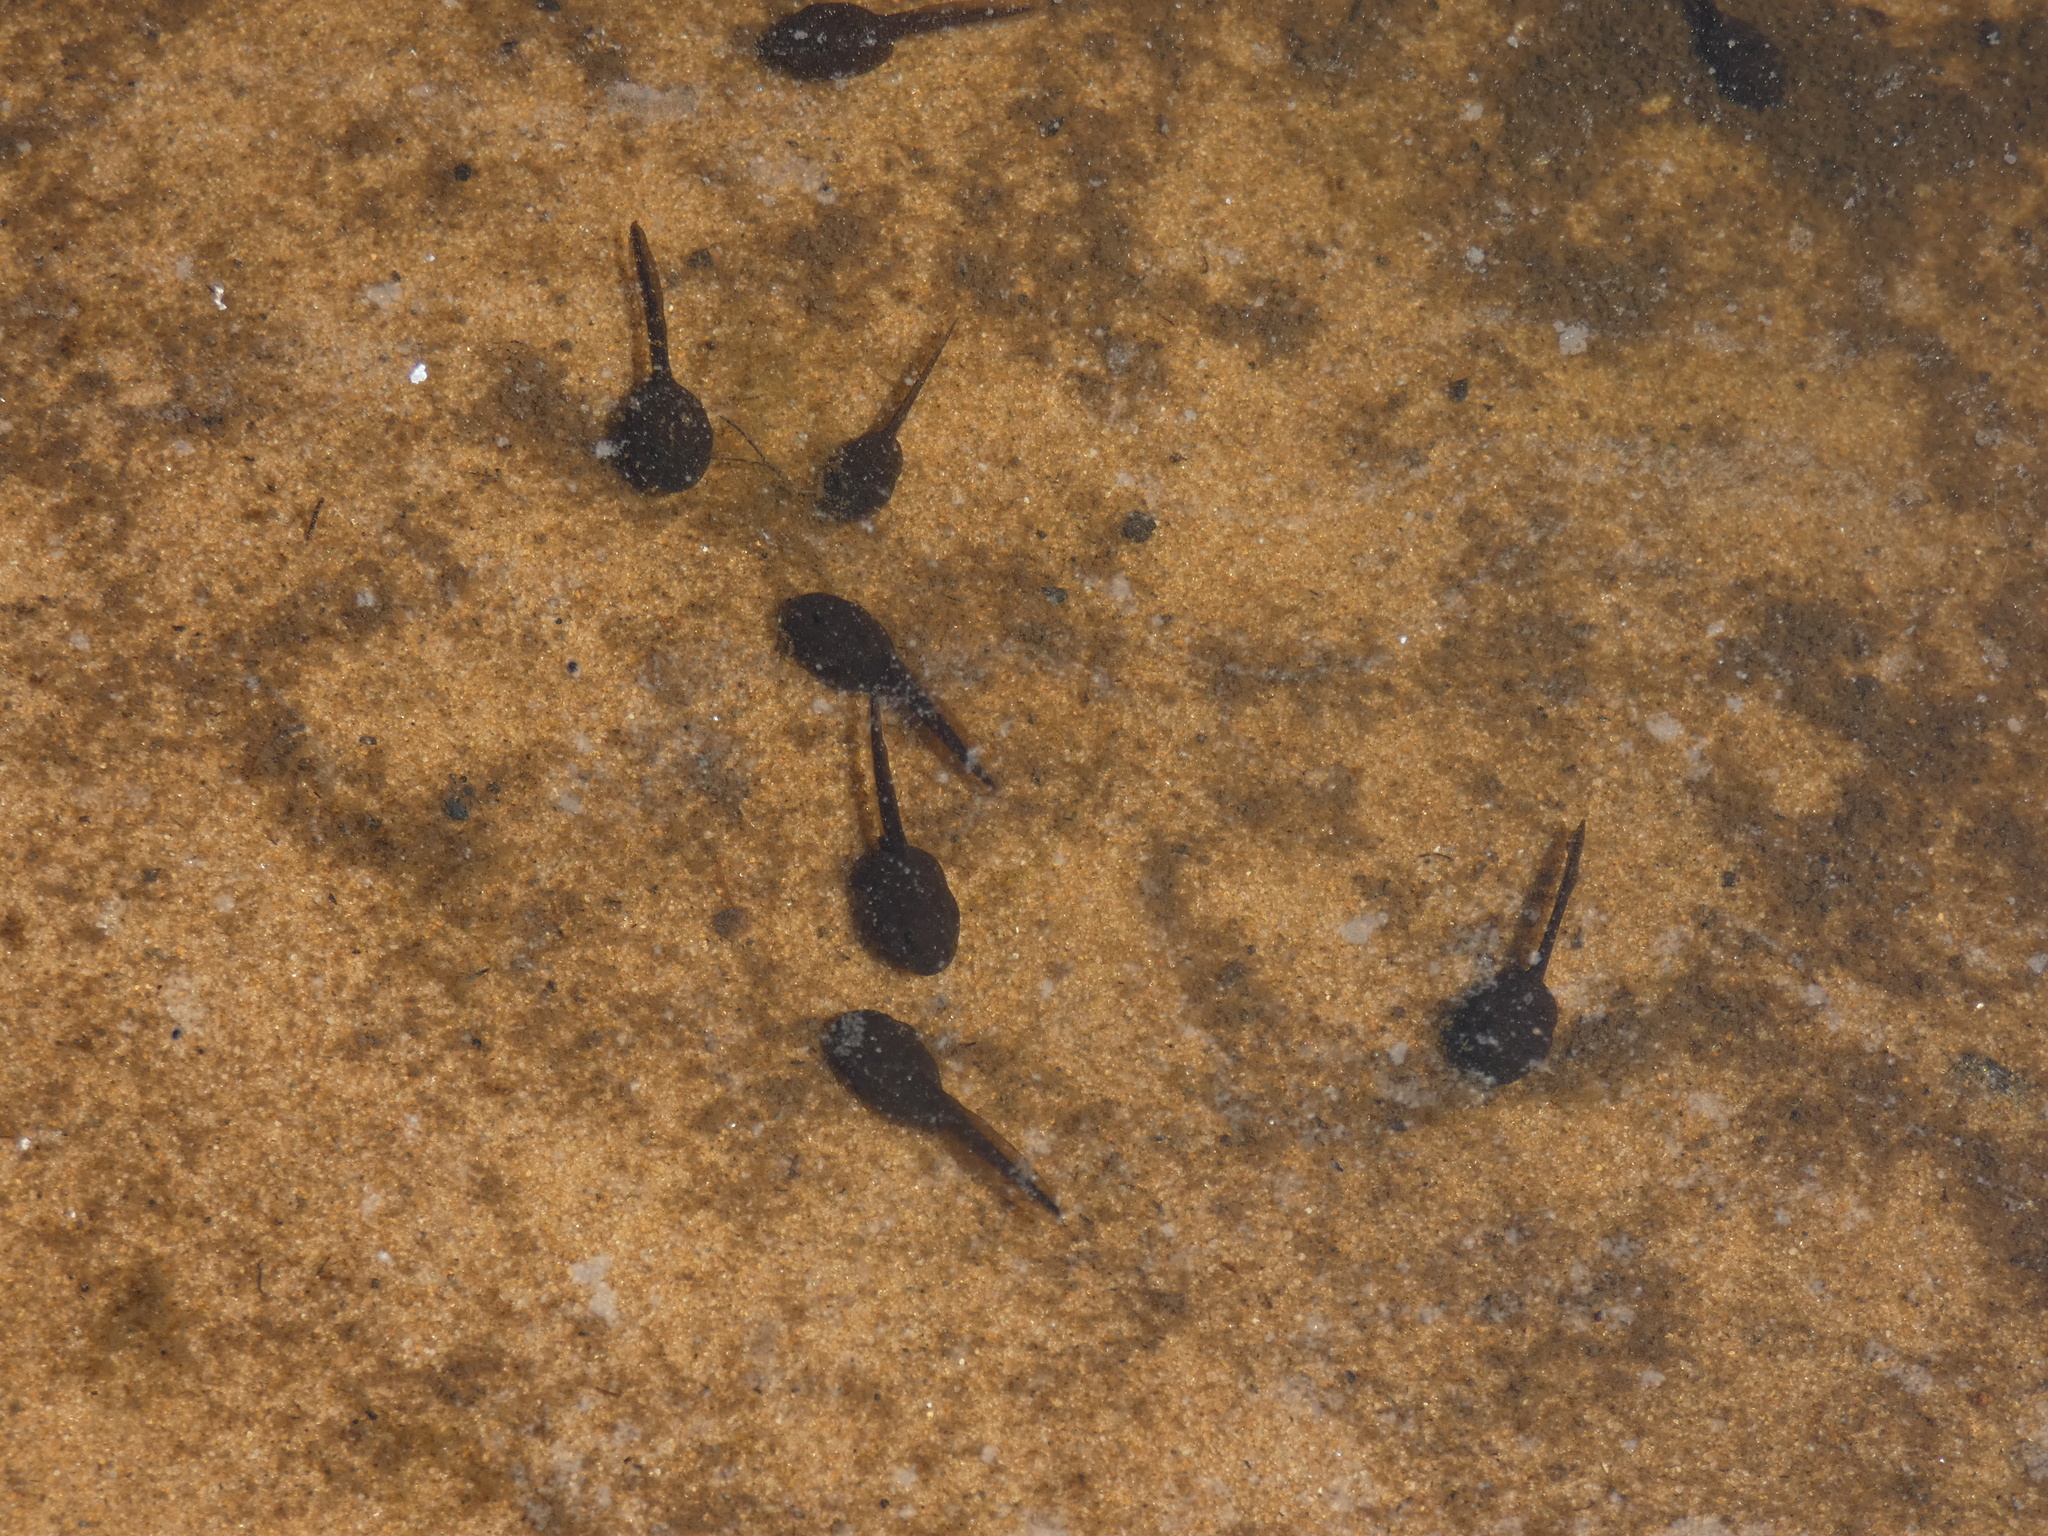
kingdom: Animalia
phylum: Chordata
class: Amphibia
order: Anura
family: Bufonidae
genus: Bufo
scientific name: Bufo bufo
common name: Common toad
